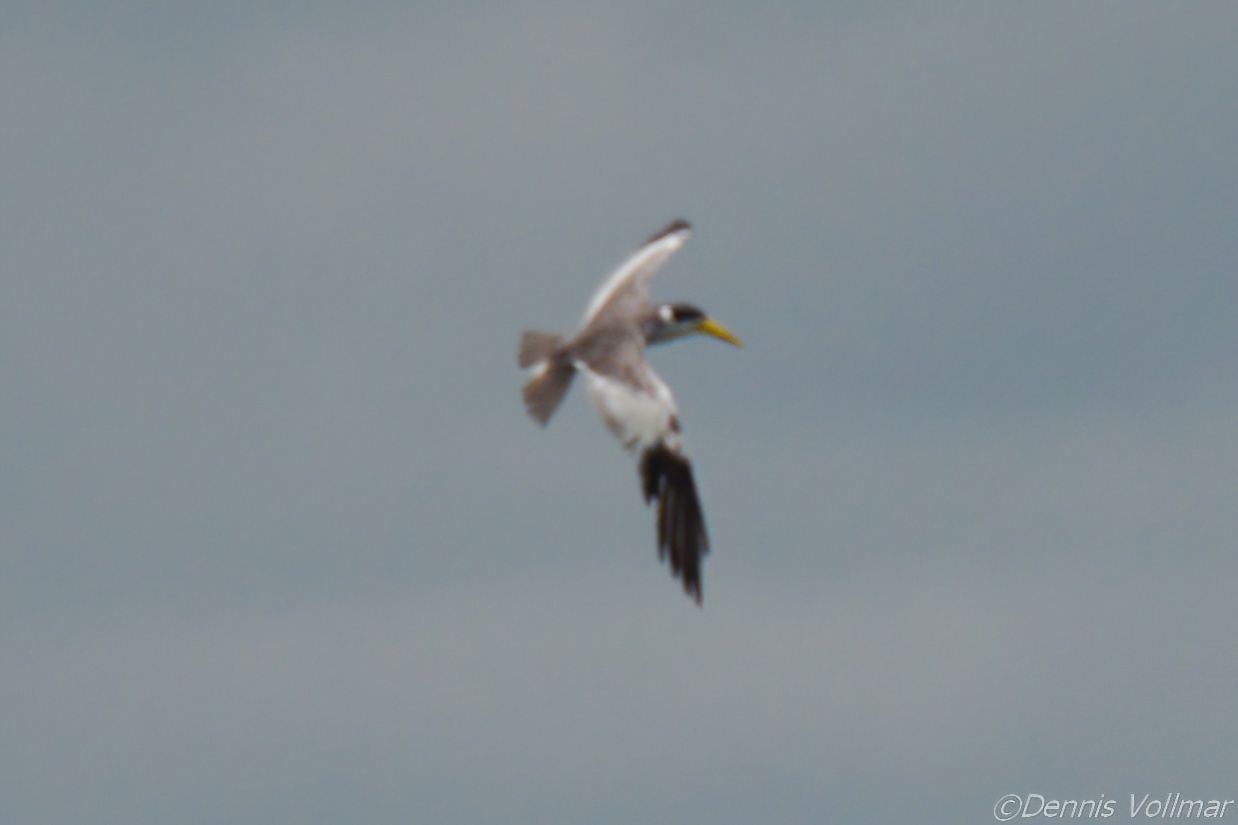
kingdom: Animalia
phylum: Chordata
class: Aves
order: Charadriiformes
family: Laridae
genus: Phaetusa
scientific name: Phaetusa simplex
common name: Large-billed tern
